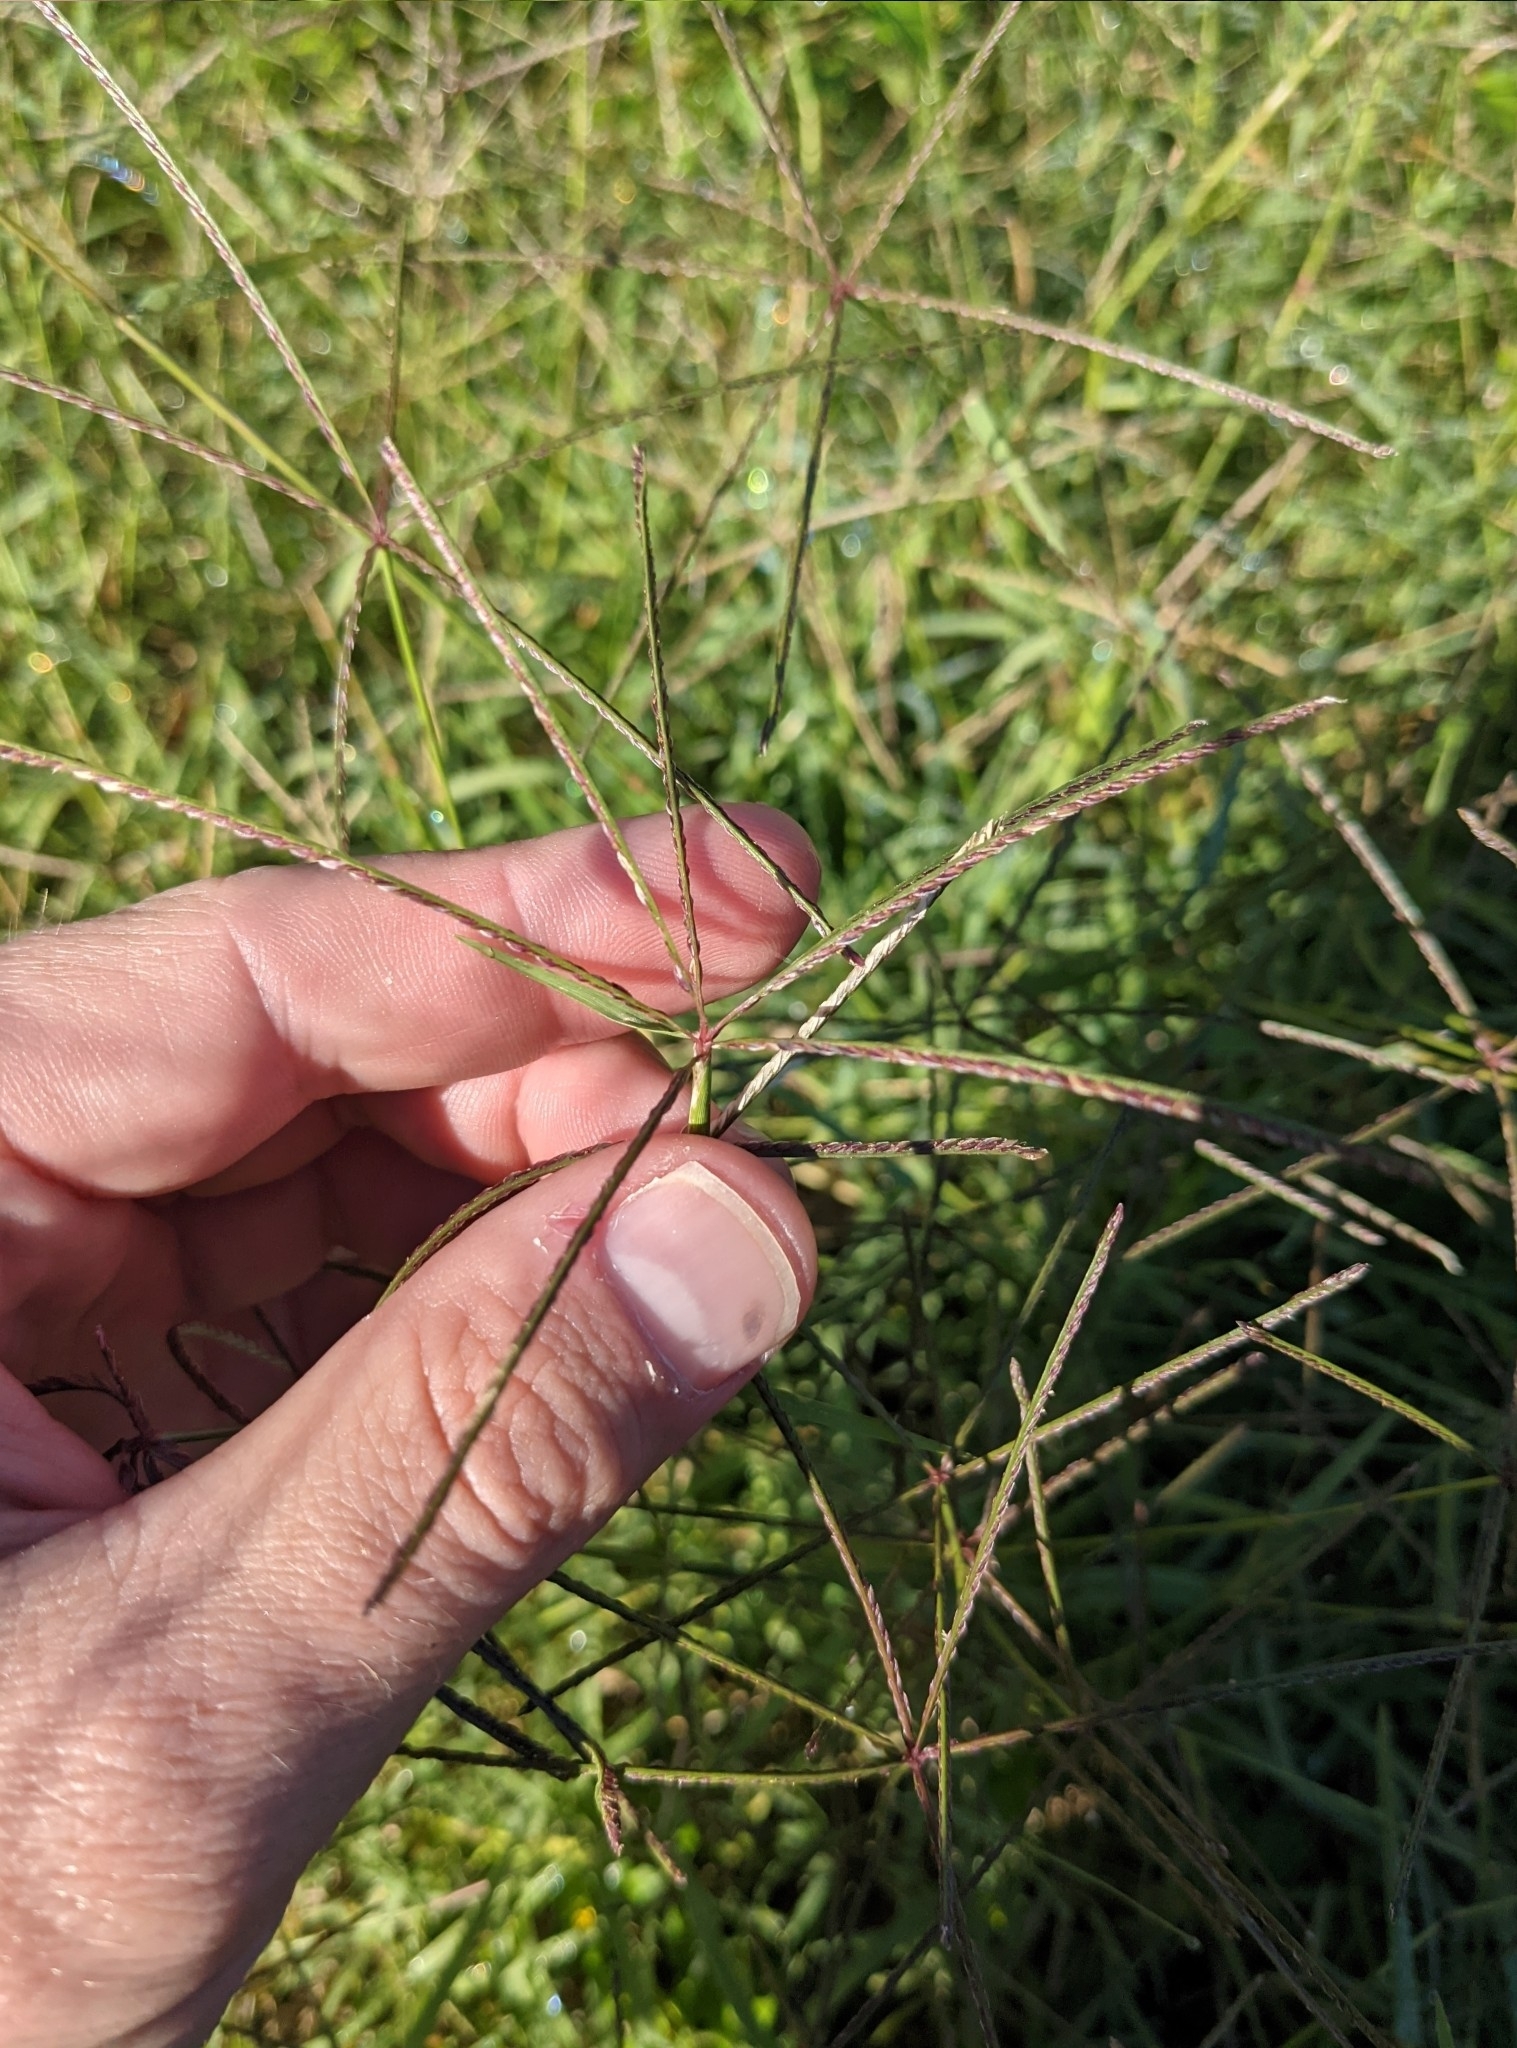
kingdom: Plantae
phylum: Tracheophyta
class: Liliopsida
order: Poales
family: Poaceae
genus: Cynodon
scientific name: Cynodon nlemfuensis
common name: African bermudagrass
